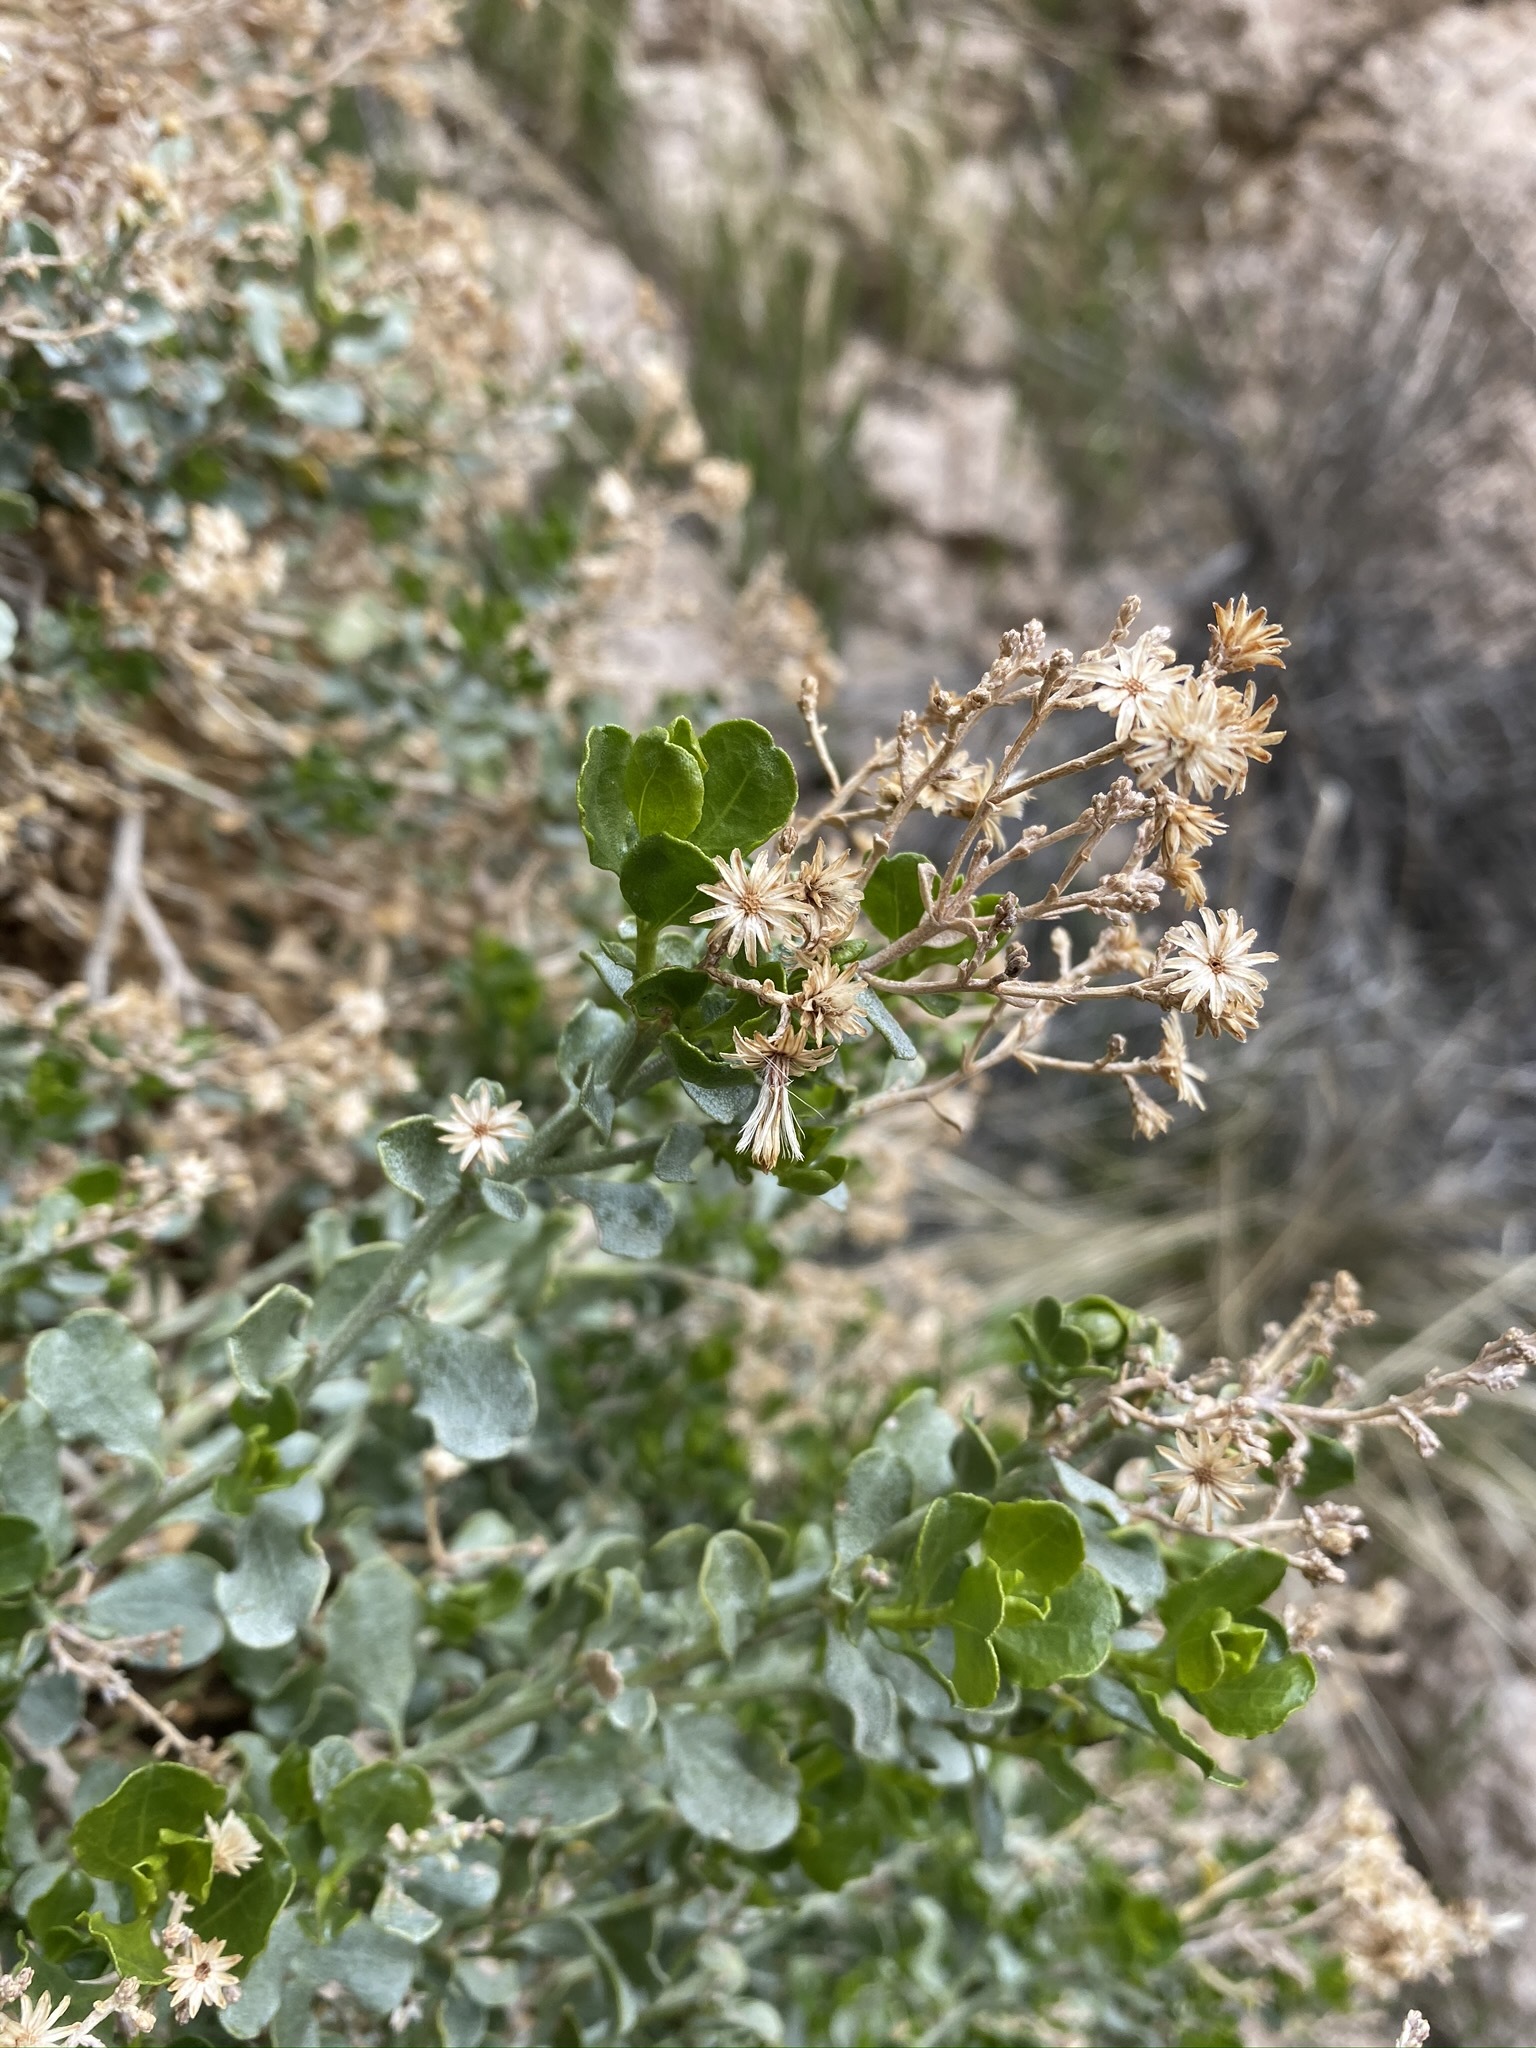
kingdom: Plantae
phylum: Tracheophyta
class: Magnoliopsida
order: Asterales
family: Asteraceae
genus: Ericameria
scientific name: Ericameria cuneata
